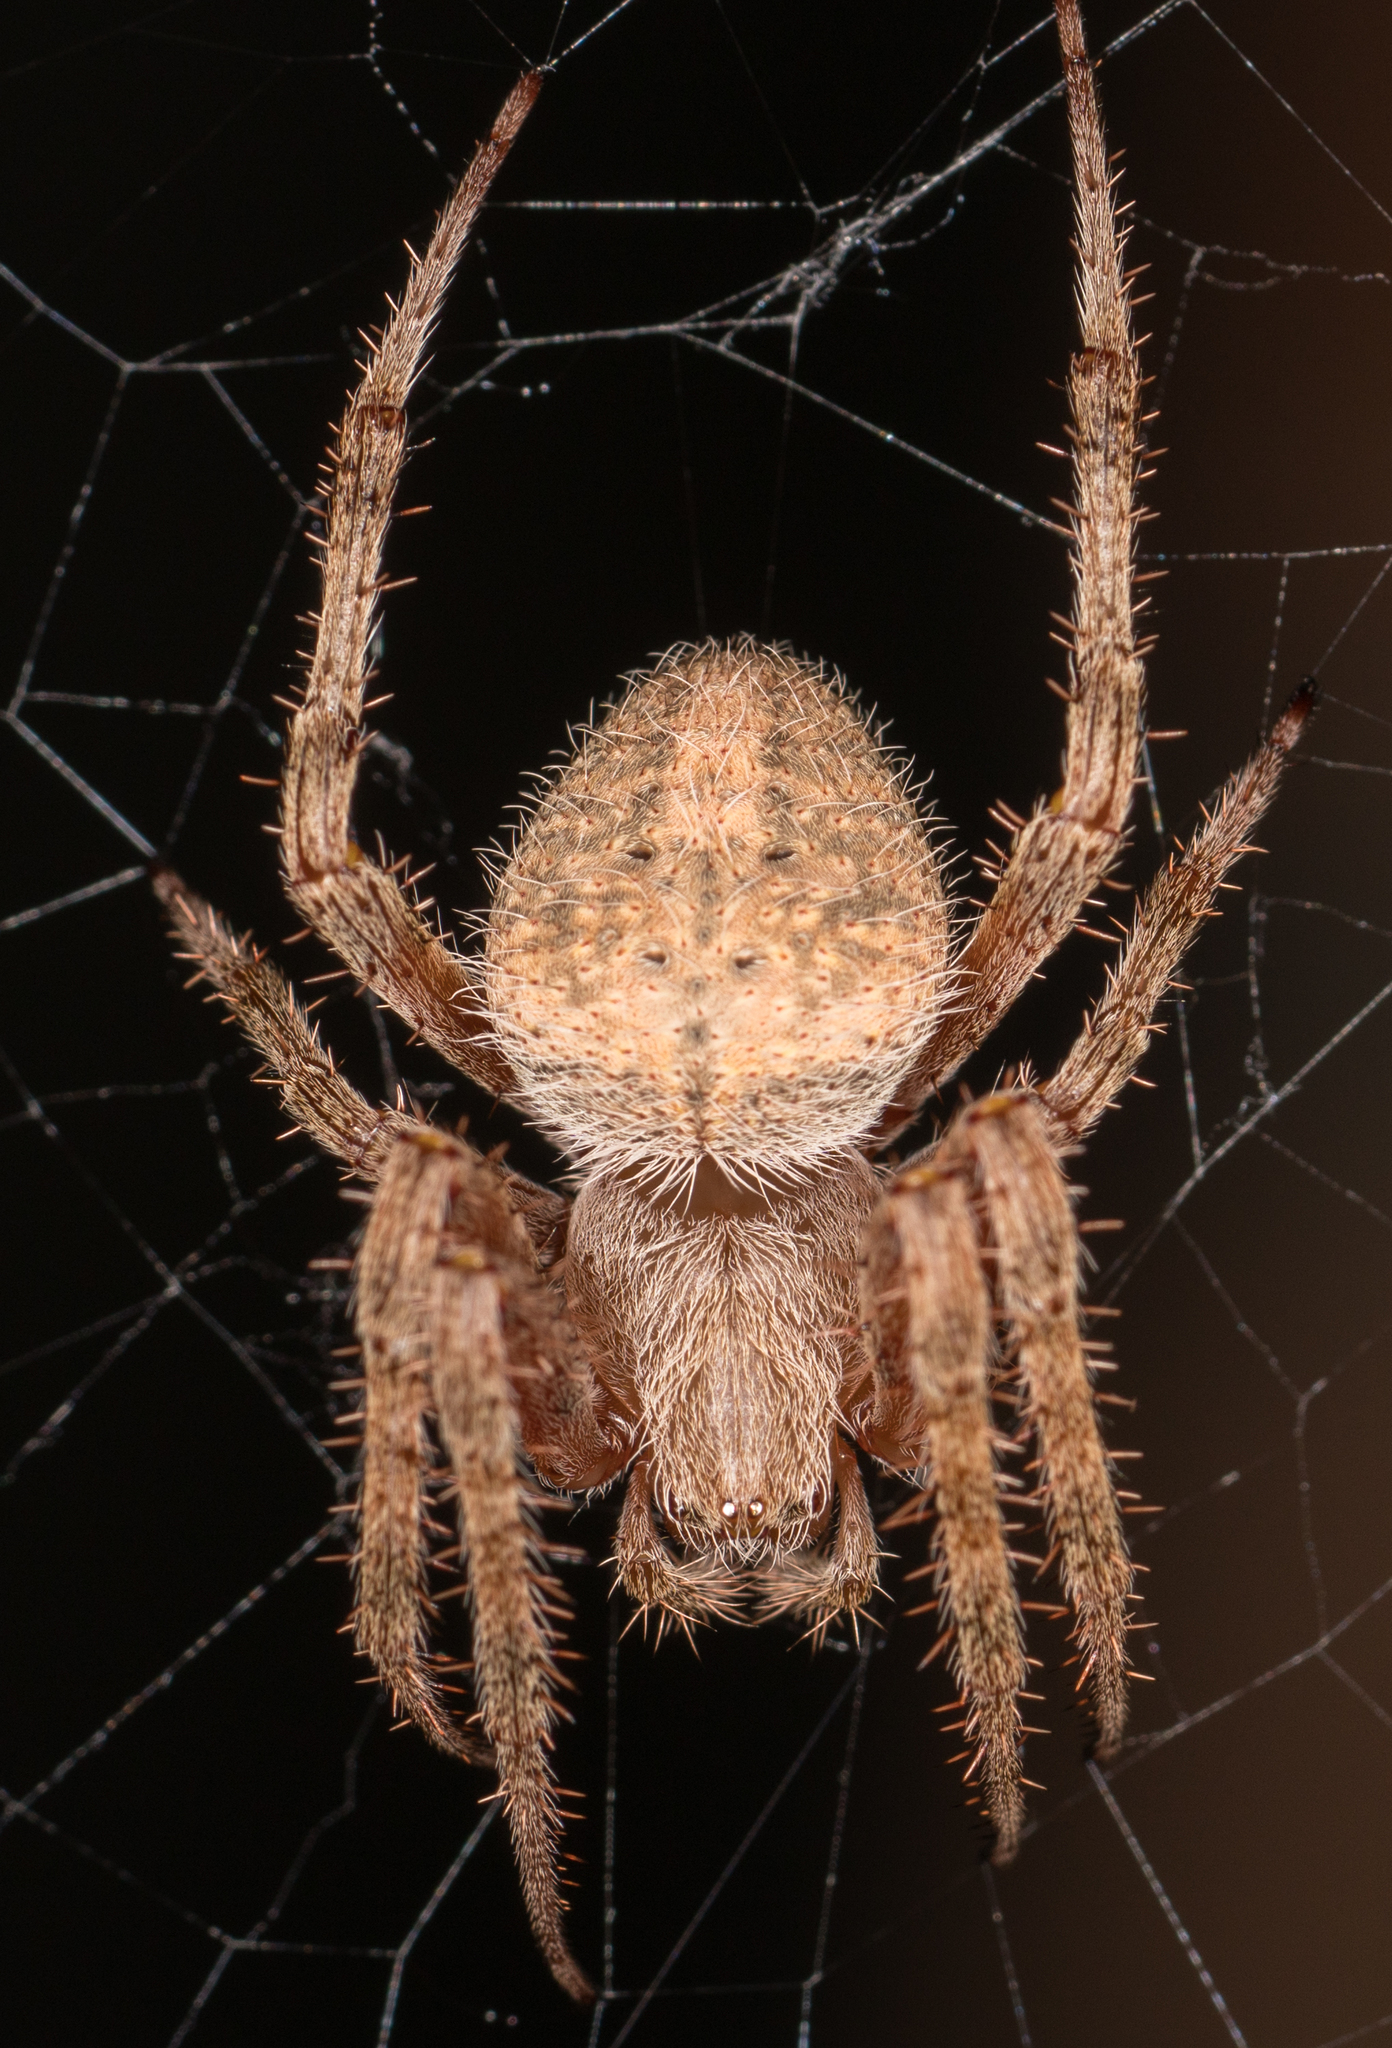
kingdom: Animalia
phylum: Arthropoda
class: Arachnida
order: Araneae
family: Araneidae
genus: Neoscona
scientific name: Neoscona crucifera
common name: Spotted orbweaver
